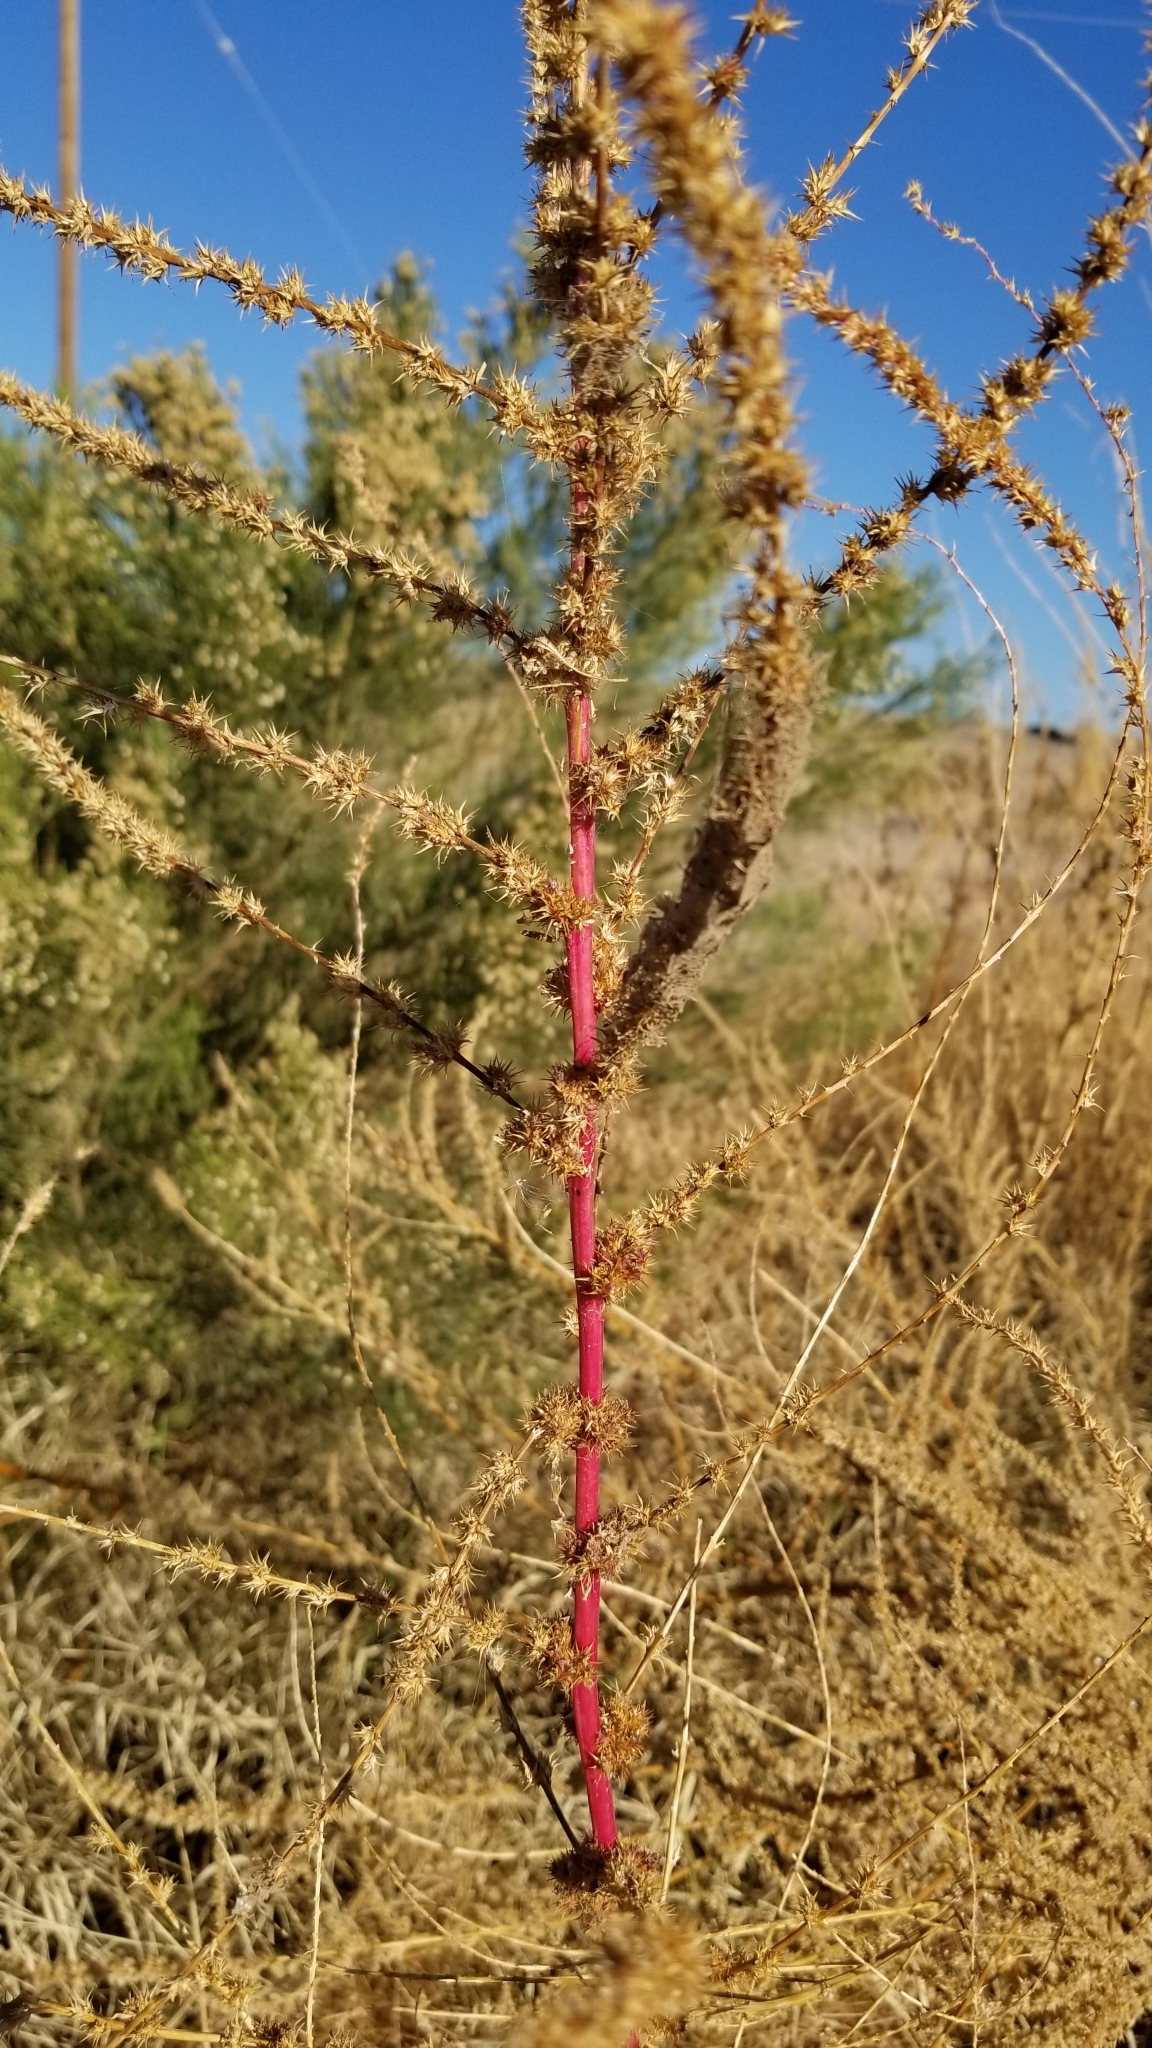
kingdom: Plantae
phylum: Tracheophyta
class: Magnoliopsida
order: Caryophyllales
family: Amaranthaceae
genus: Amaranthus
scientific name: Amaranthus palmeri
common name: Dioecious amaranth
